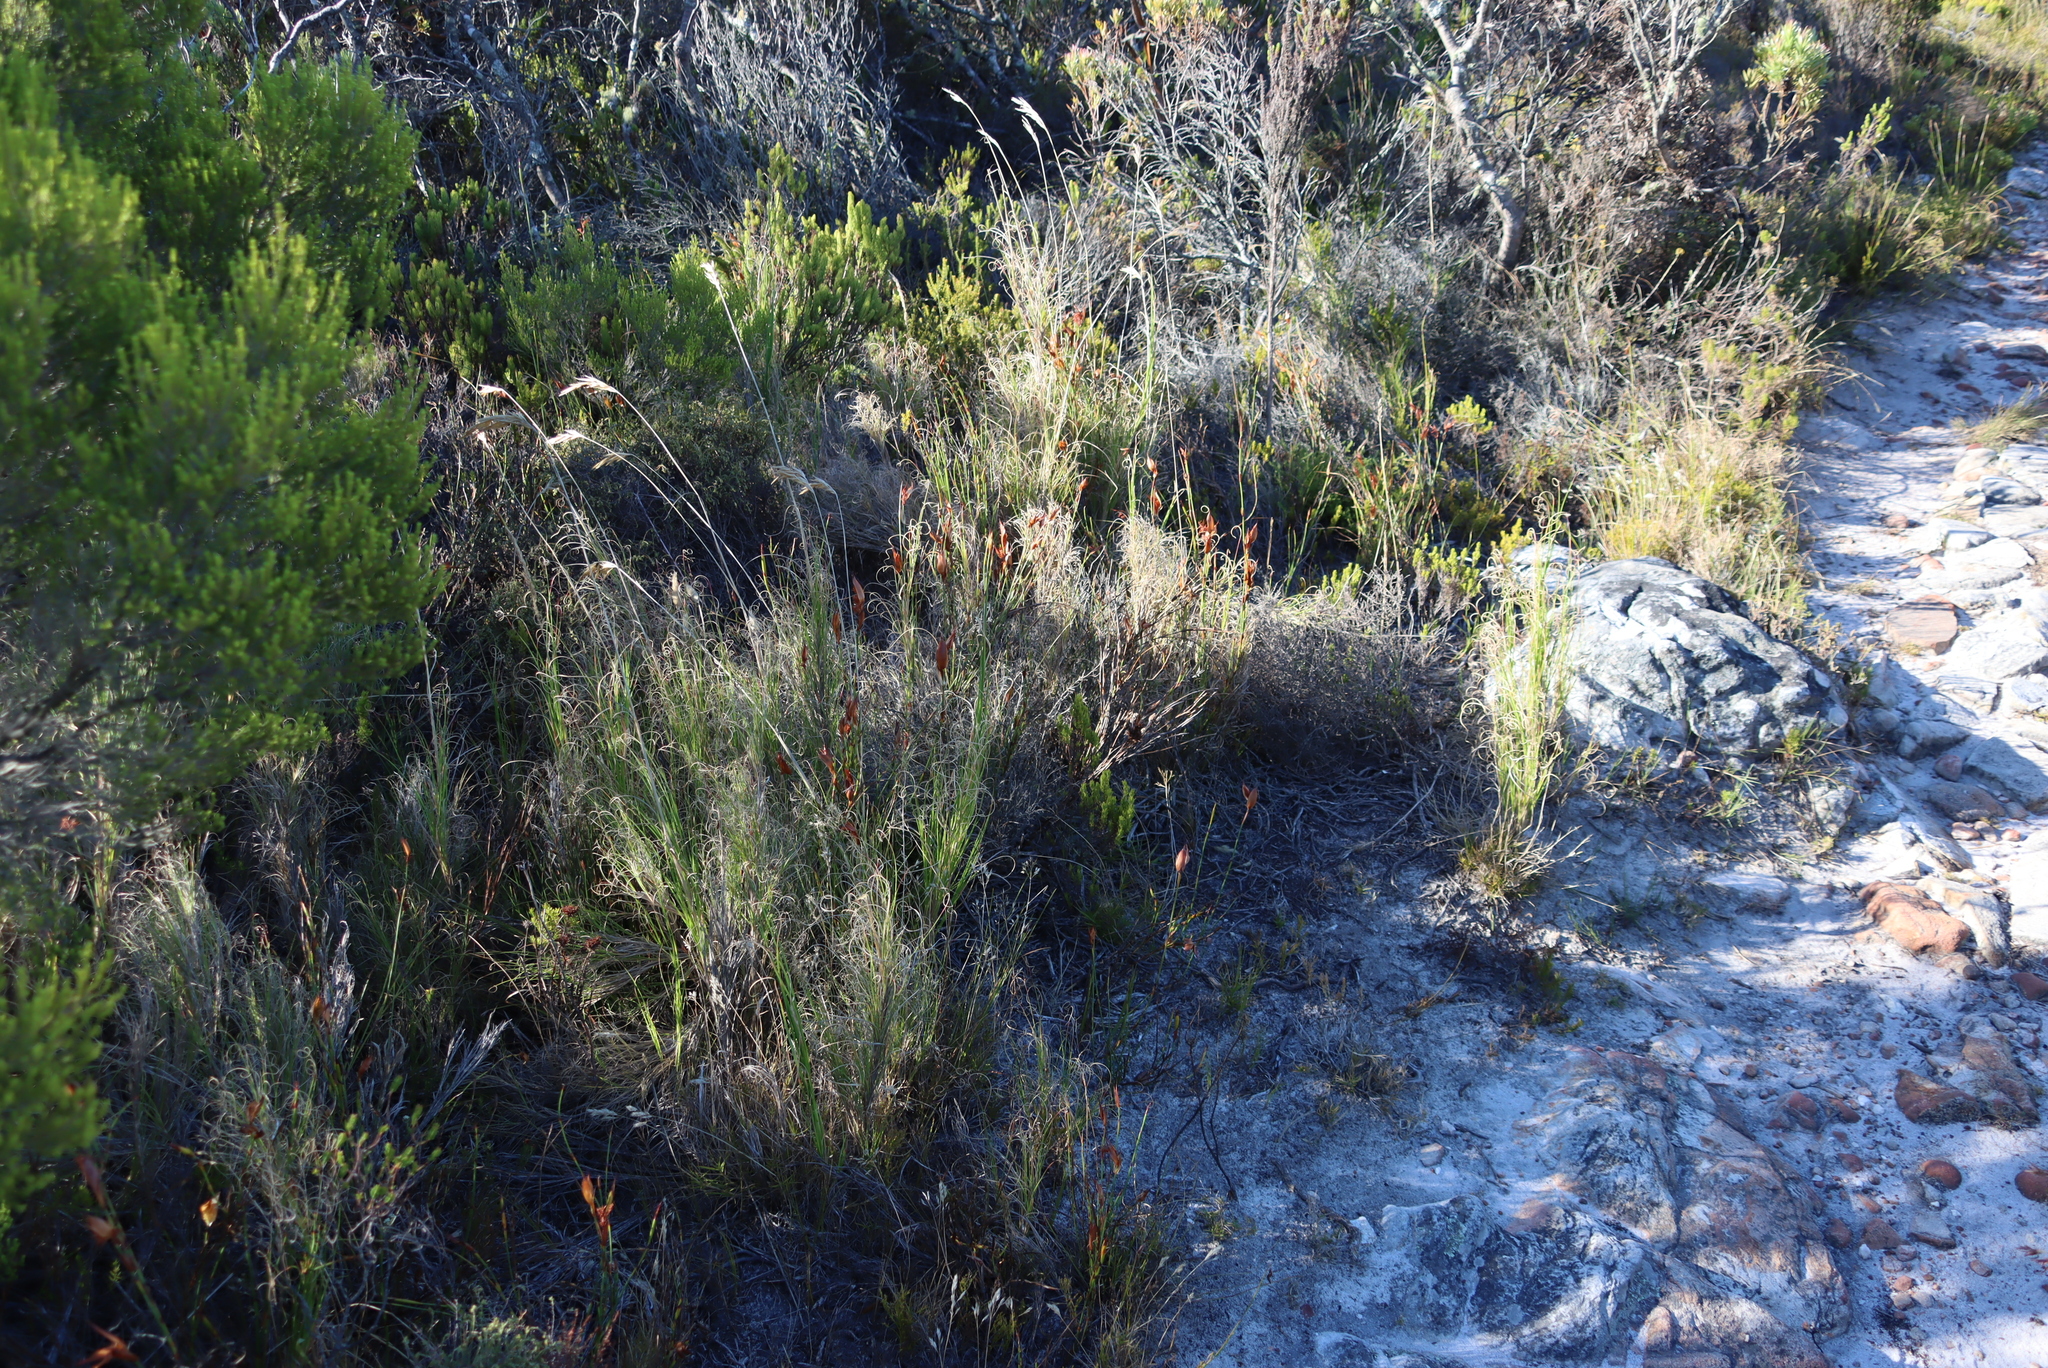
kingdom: Plantae
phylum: Tracheophyta
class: Liliopsida
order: Poales
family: Poaceae
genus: Pseudopentameris
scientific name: Pseudopentameris macrantha
